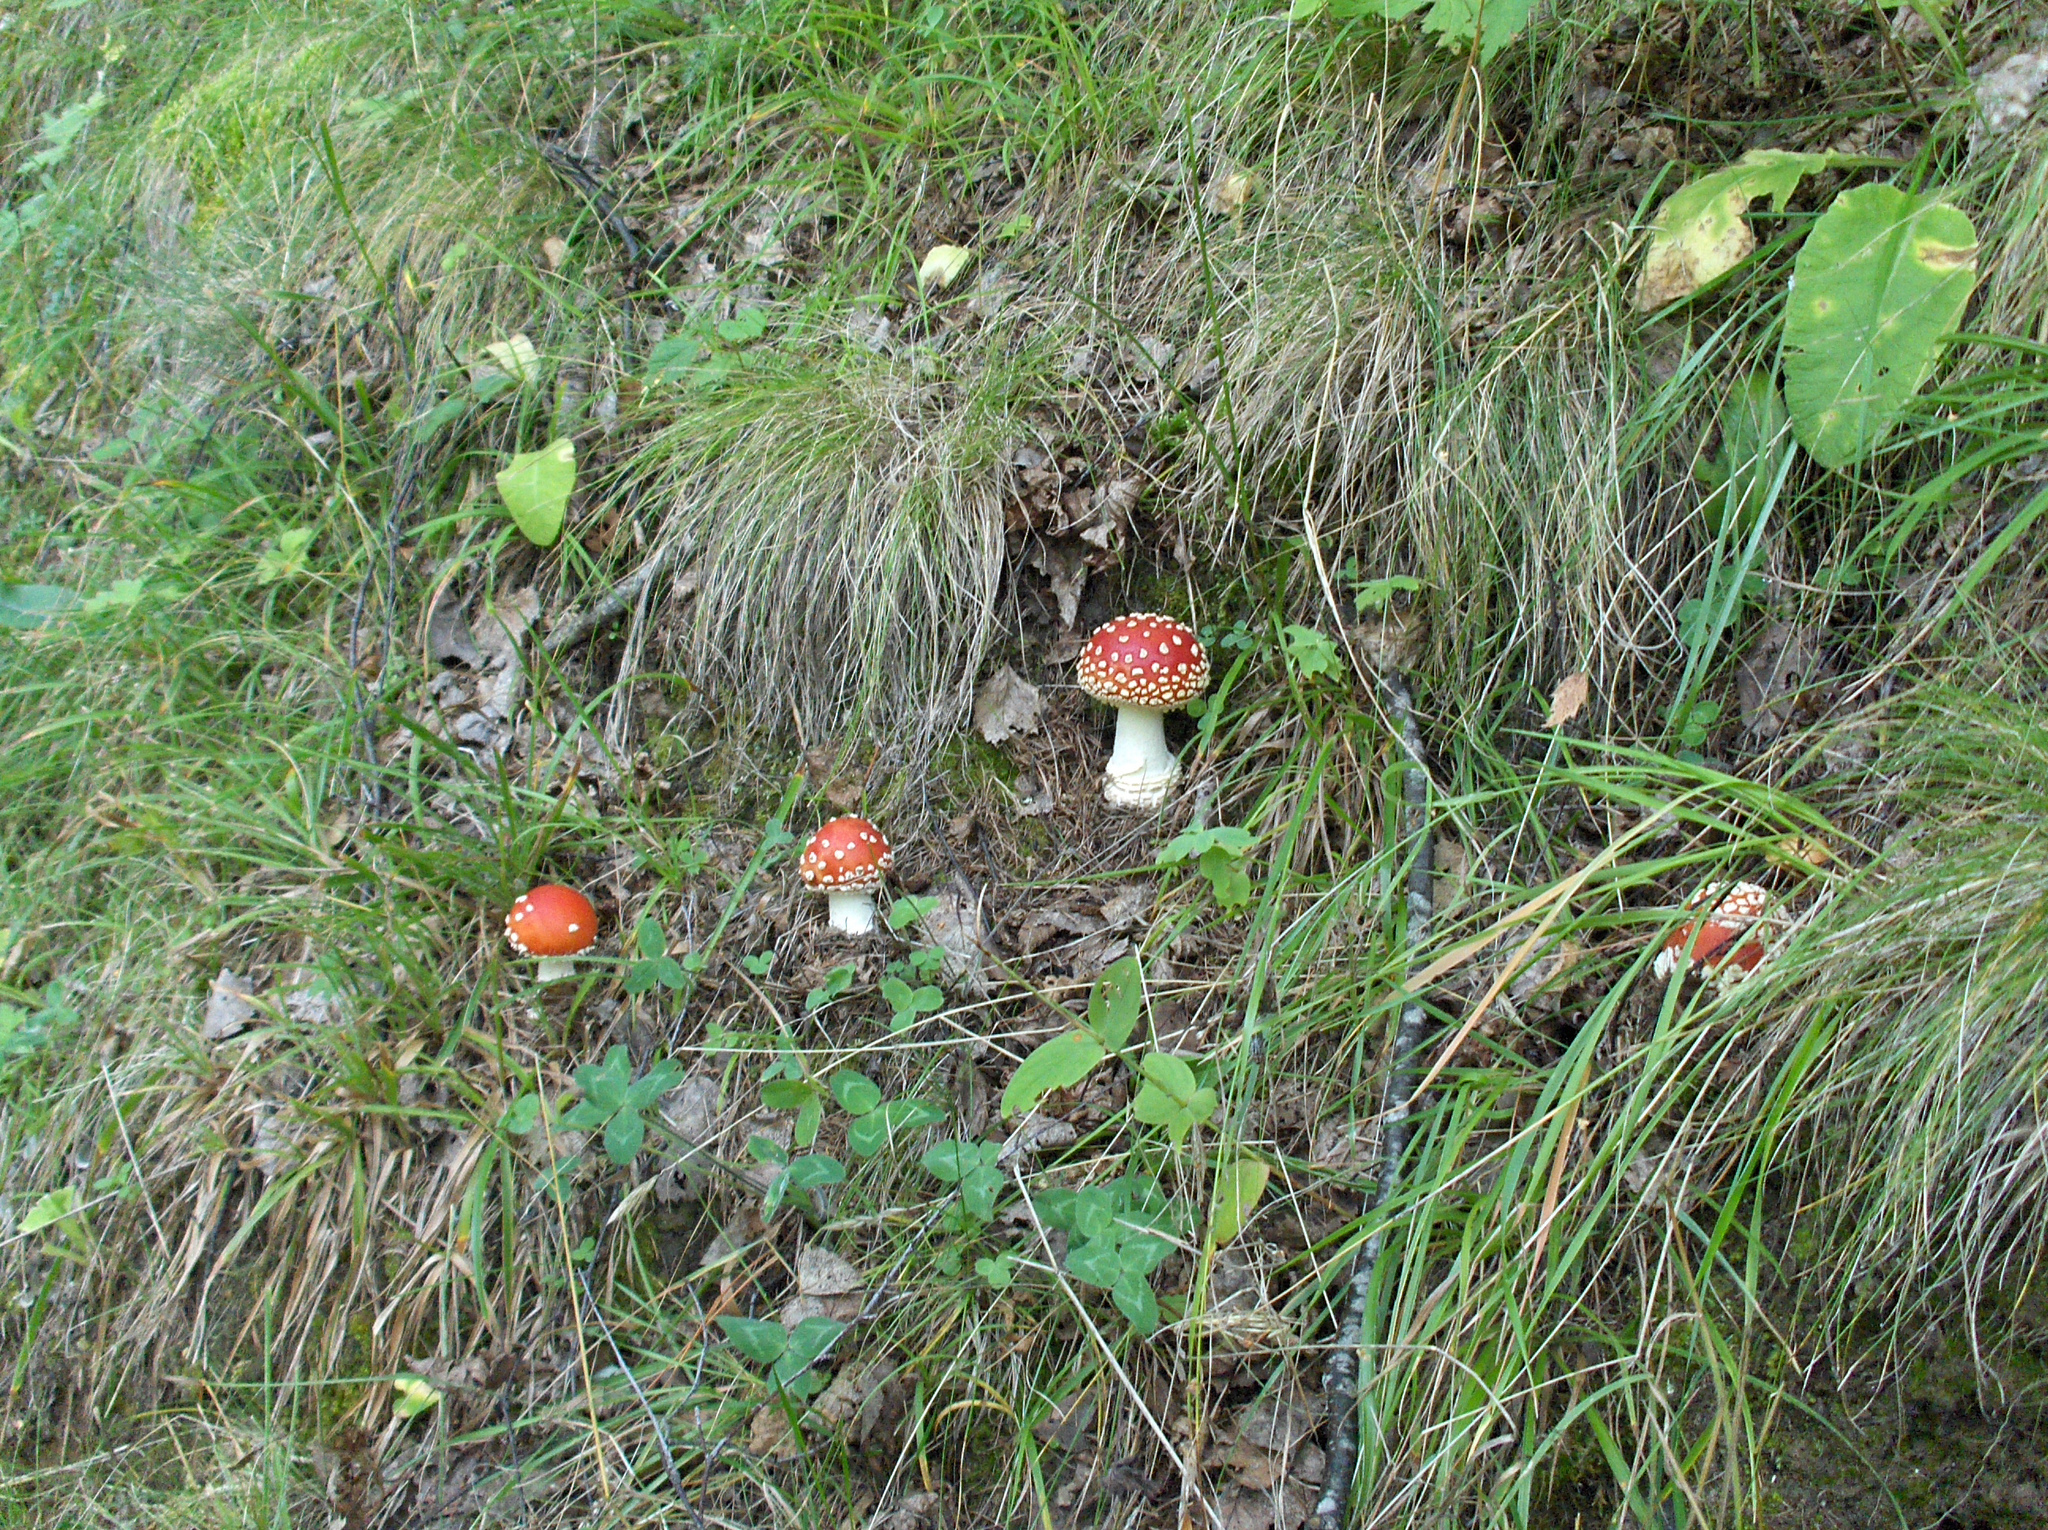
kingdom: Fungi
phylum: Basidiomycota
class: Agaricomycetes
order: Agaricales
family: Amanitaceae
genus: Amanita
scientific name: Amanita muscaria
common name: Fly agaric
